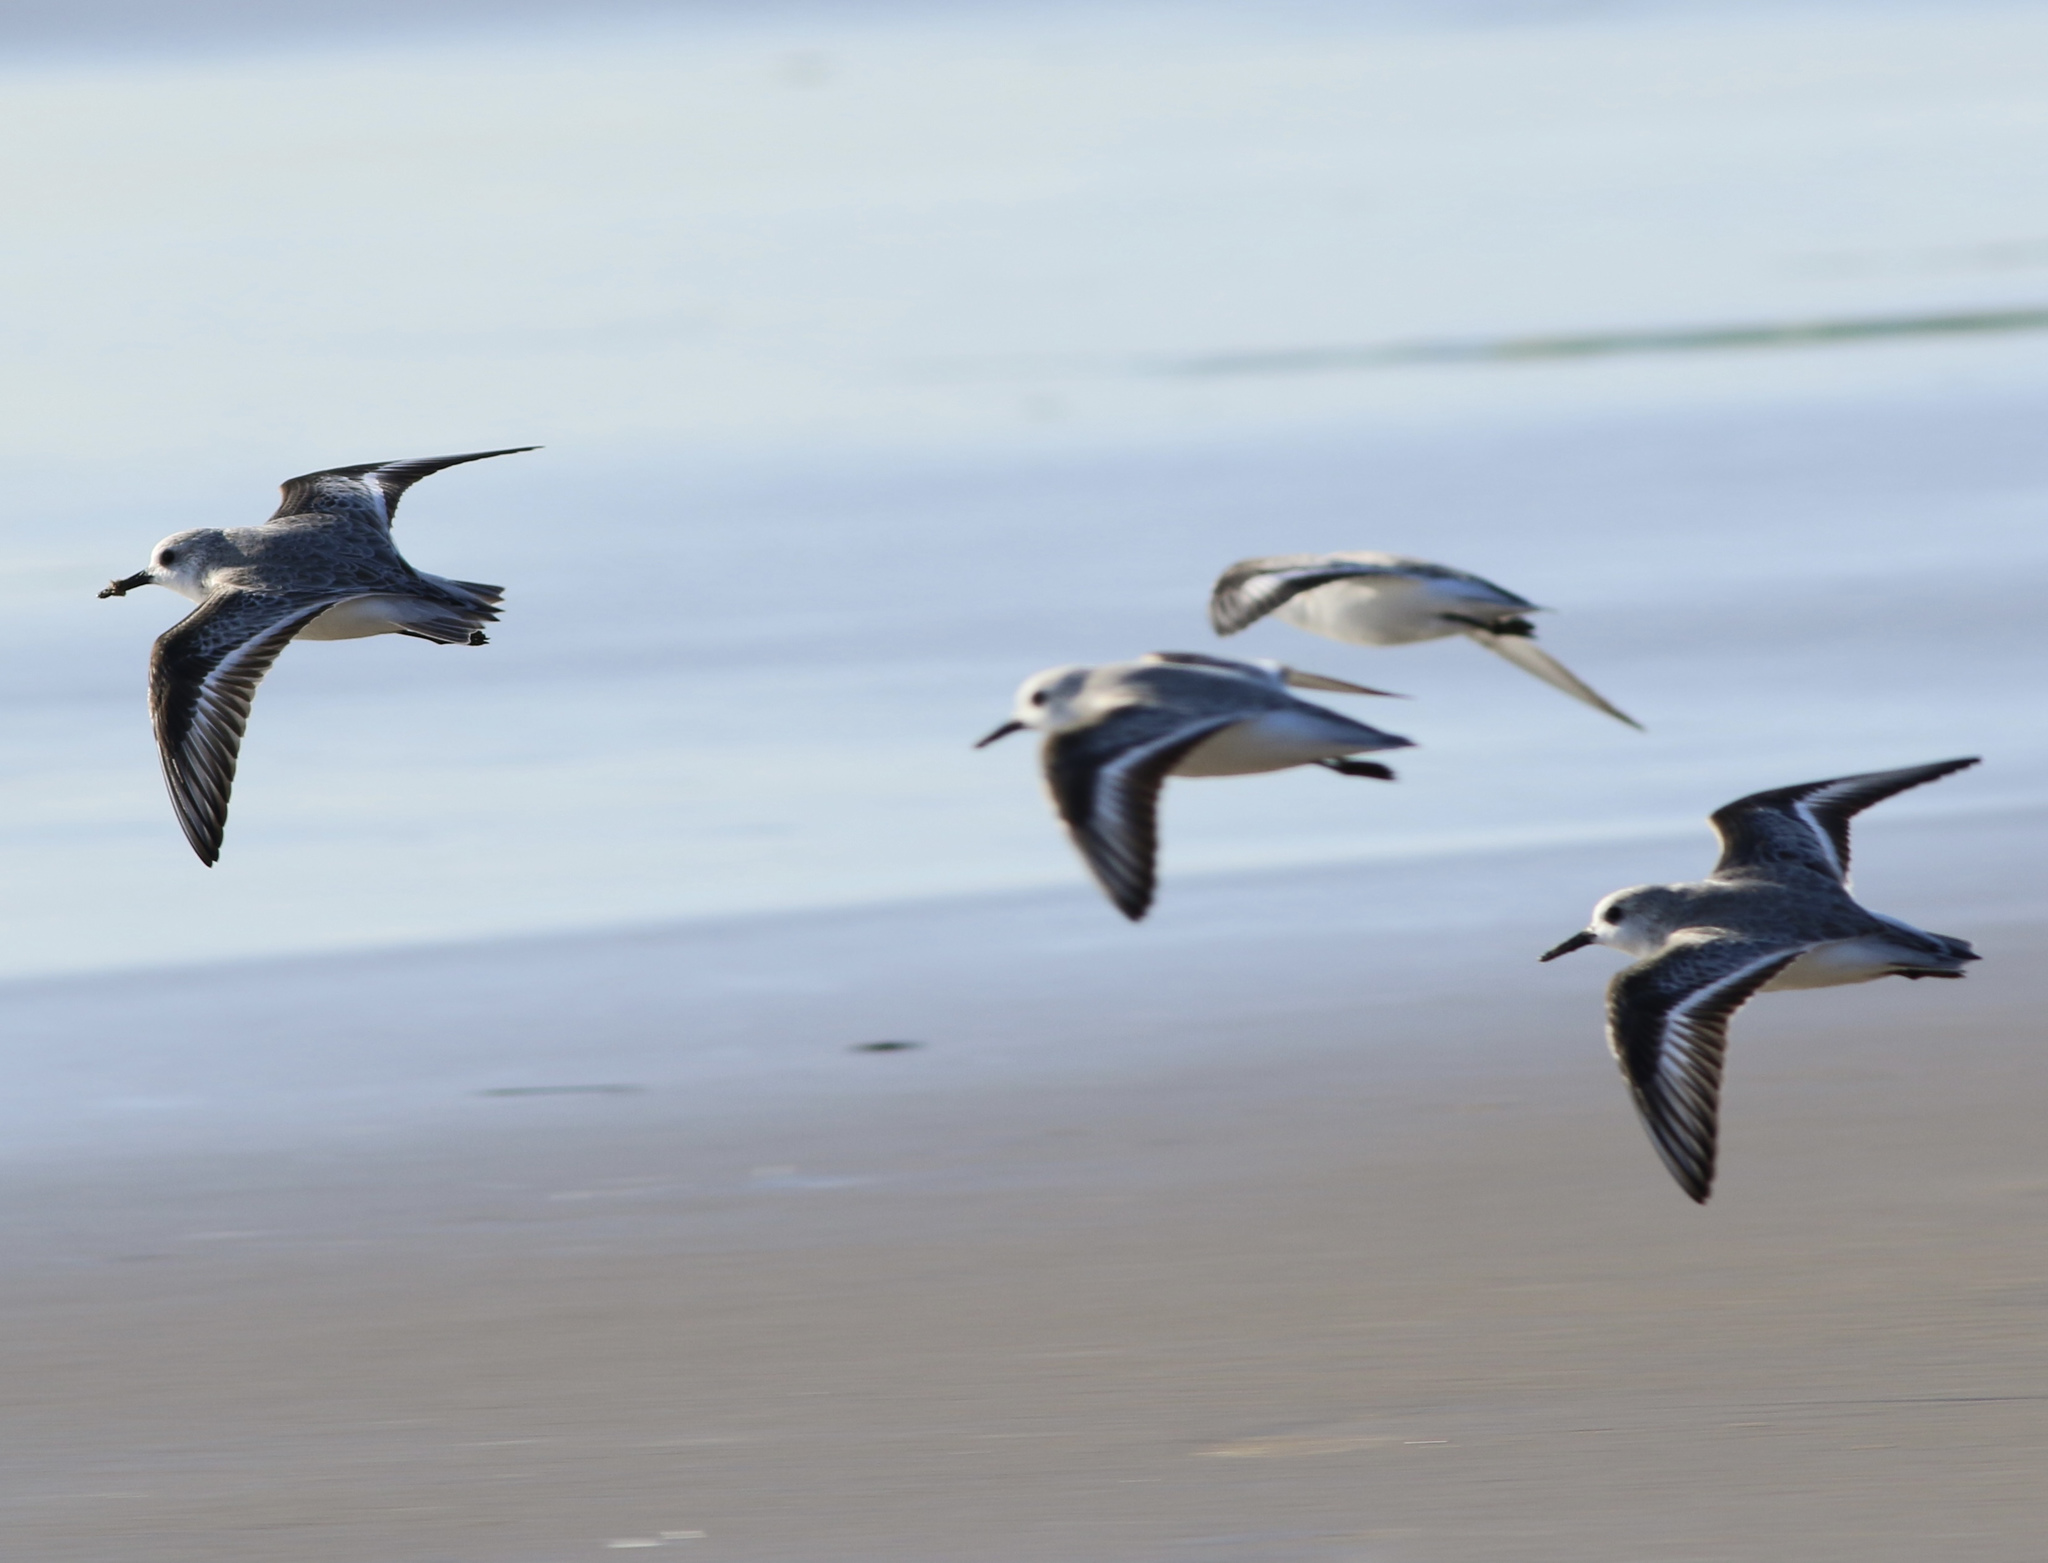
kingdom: Animalia
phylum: Chordata
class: Aves
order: Charadriiformes
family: Scolopacidae
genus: Calidris
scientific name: Calidris alba
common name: Sanderling
